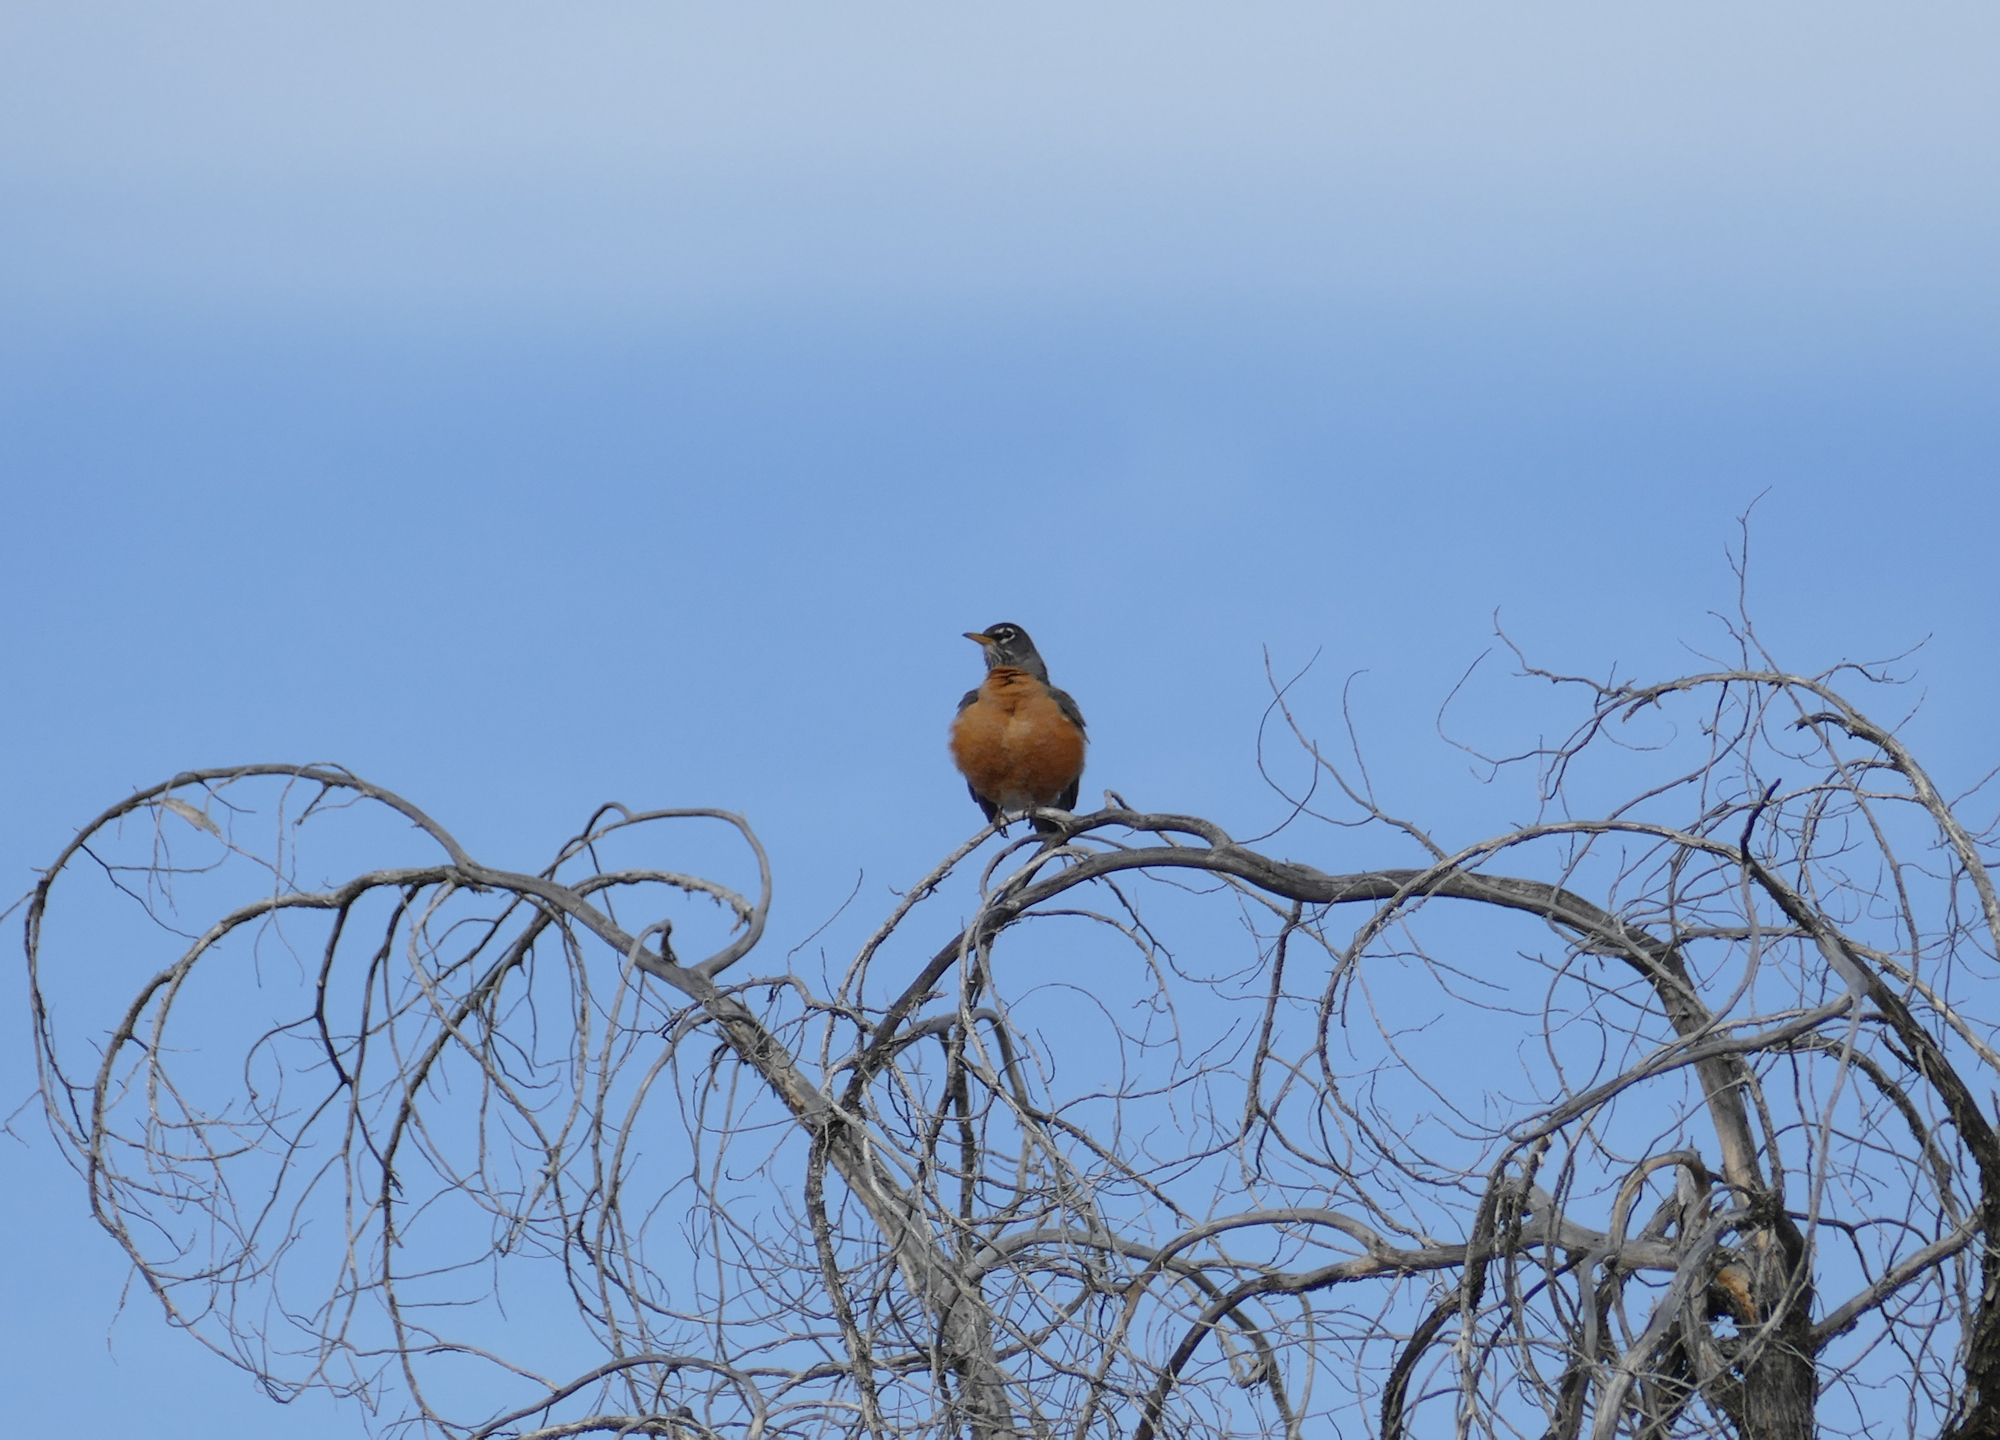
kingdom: Animalia
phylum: Chordata
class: Aves
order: Passeriformes
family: Turdidae
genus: Turdus
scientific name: Turdus migratorius
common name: American robin
